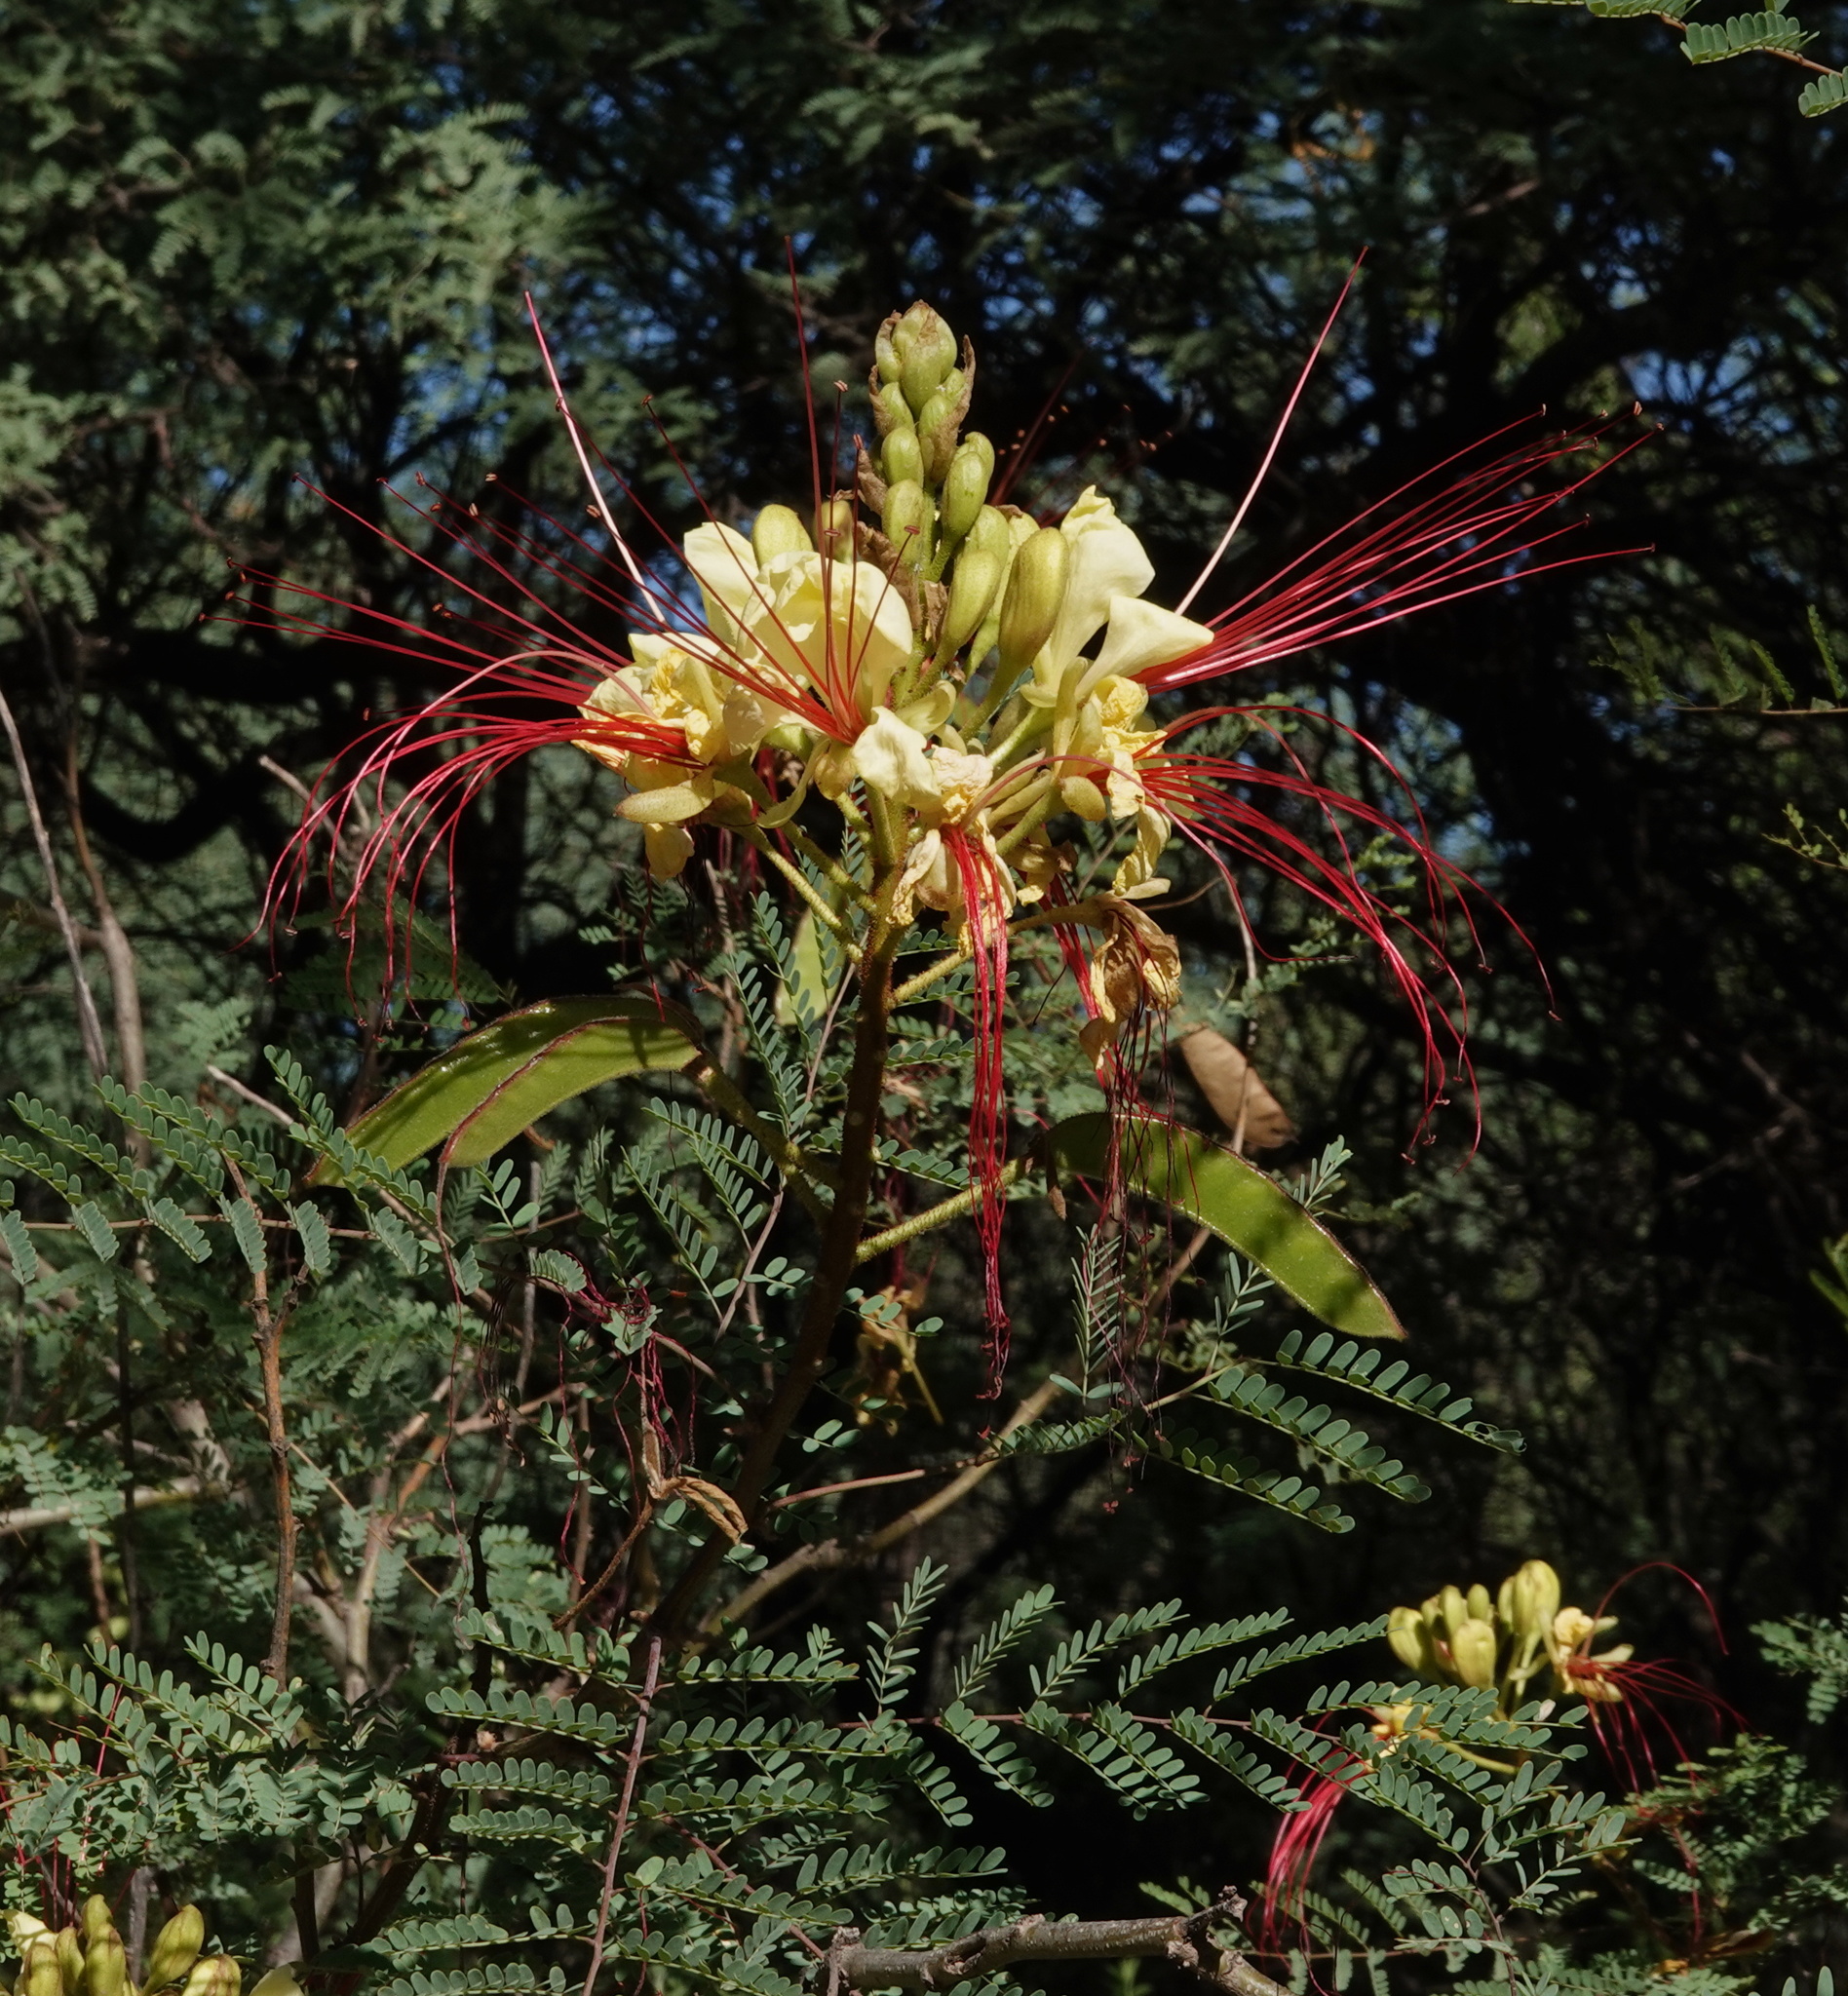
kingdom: Plantae
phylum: Tracheophyta
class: Magnoliopsida
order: Fabales
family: Fabaceae
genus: Erythrostemon
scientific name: Erythrostemon gilliesii
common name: Bird-of-paradise shrub
